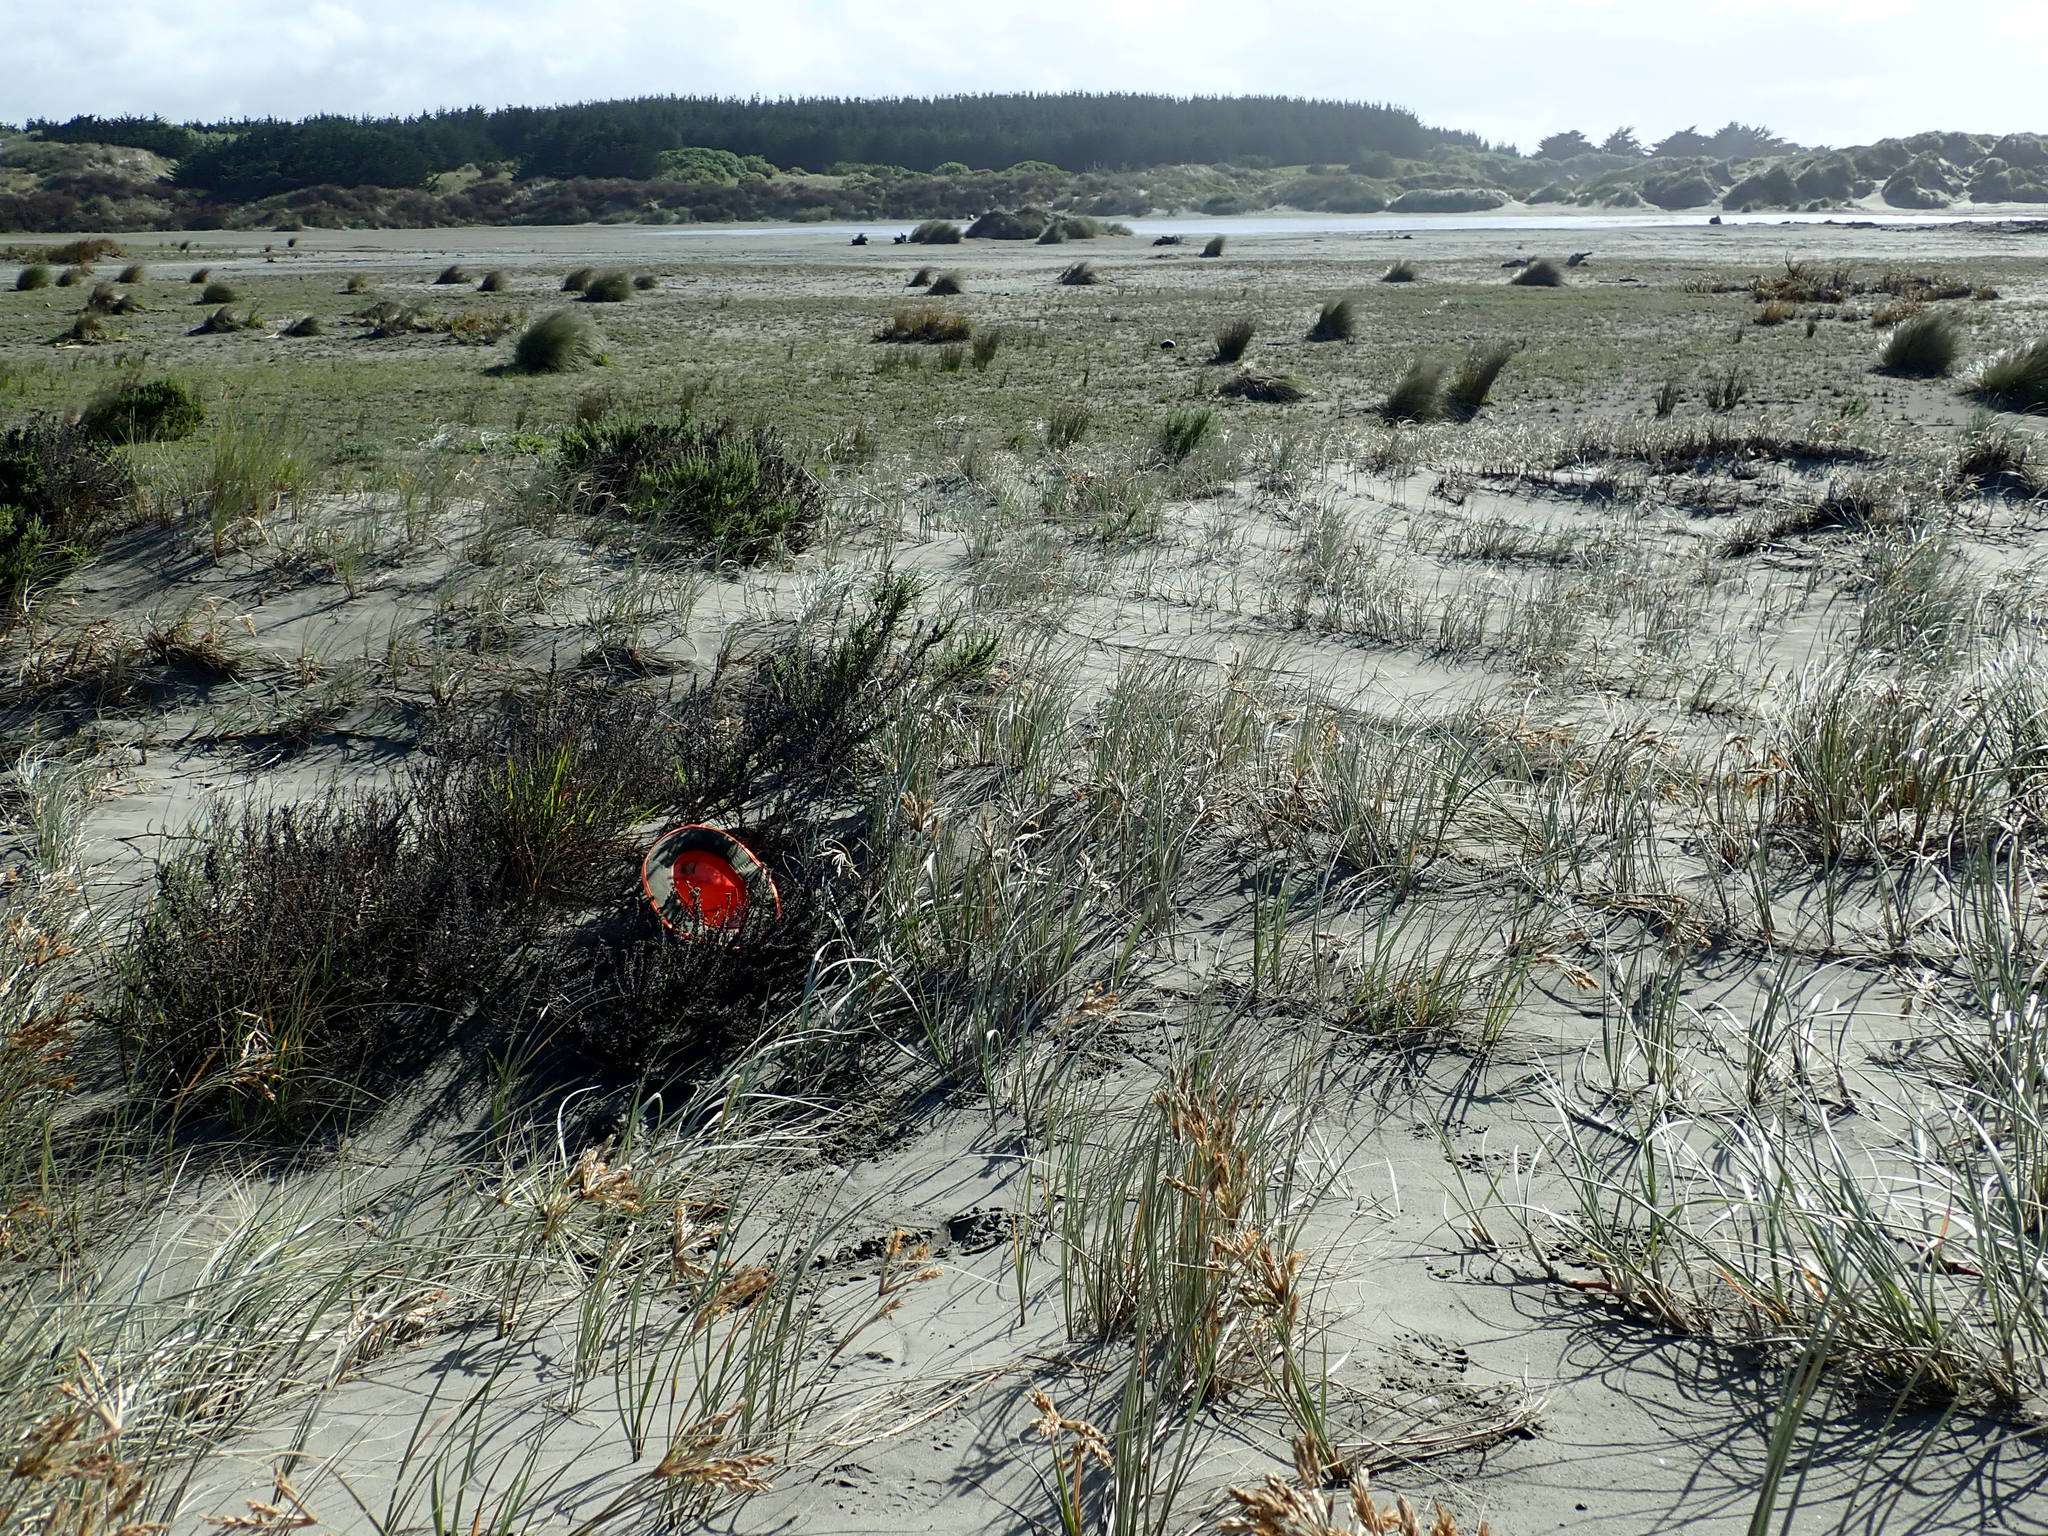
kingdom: Plantae
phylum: Tracheophyta
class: Magnoliopsida
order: Malvales
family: Thymelaeaceae
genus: Pimelea
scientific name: Pimelea villosa
